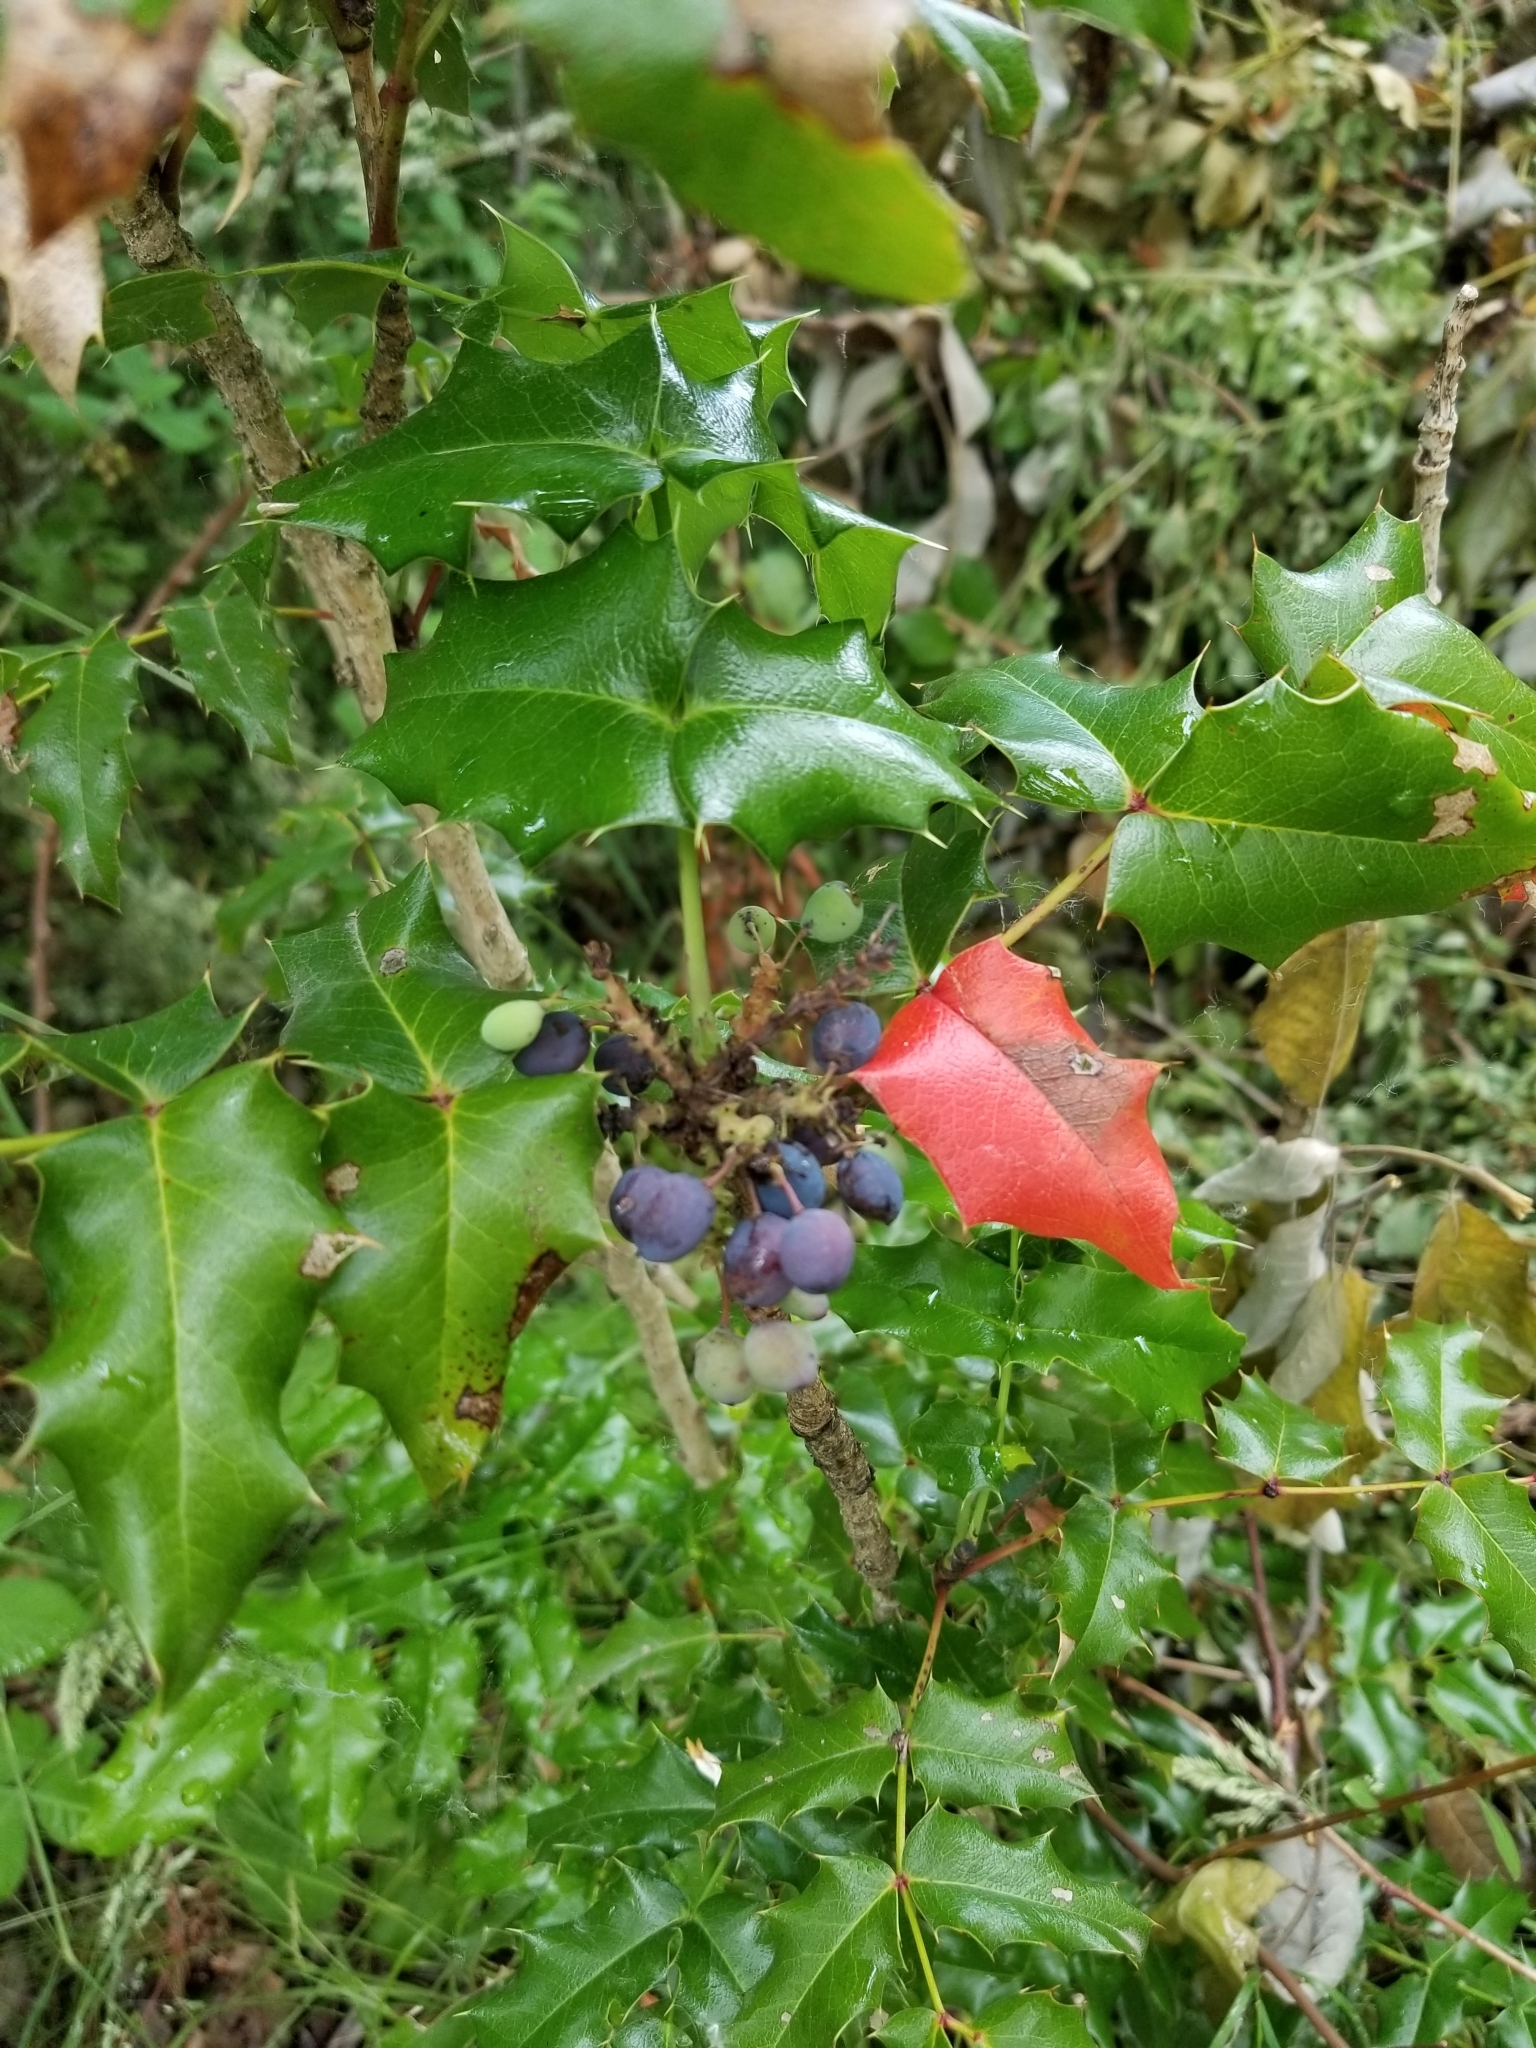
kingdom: Plantae
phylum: Tracheophyta
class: Magnoliopsida
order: Ranunculales
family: Berberidaceae
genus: Mahonia
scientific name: Mahonia aquifolium
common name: Oregon-grape
